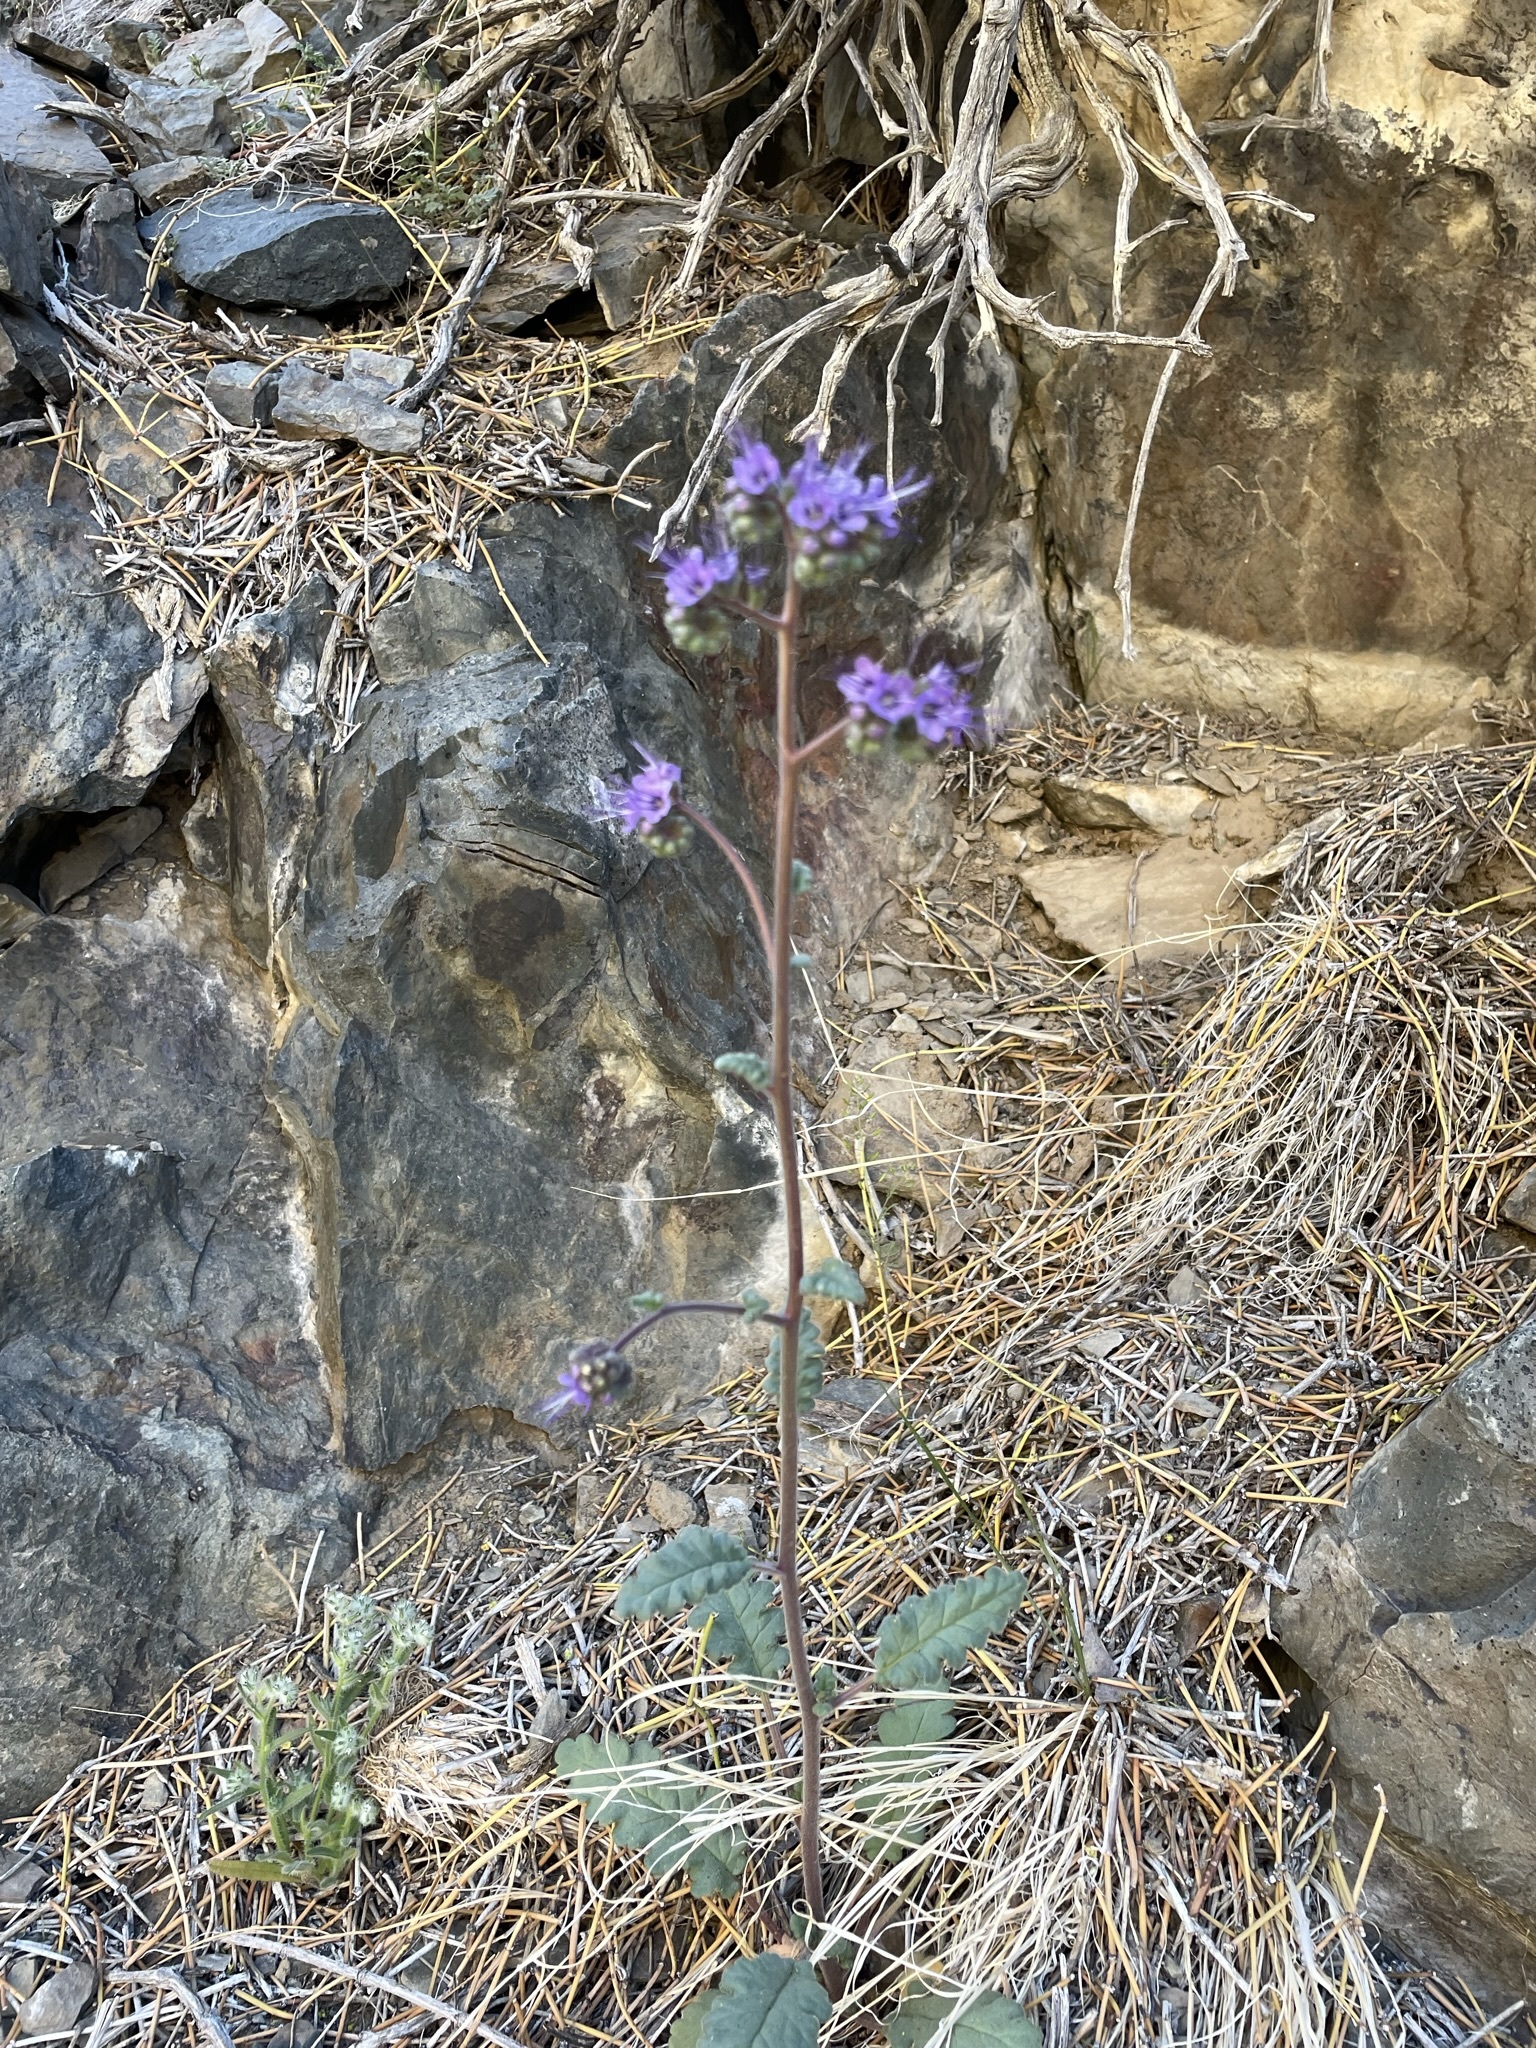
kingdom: Plantae
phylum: Tracheophyta
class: Magnoliopsida
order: Boraginales
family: Hydrophyllaceae
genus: Phacelia
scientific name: Phacelia crenulata
